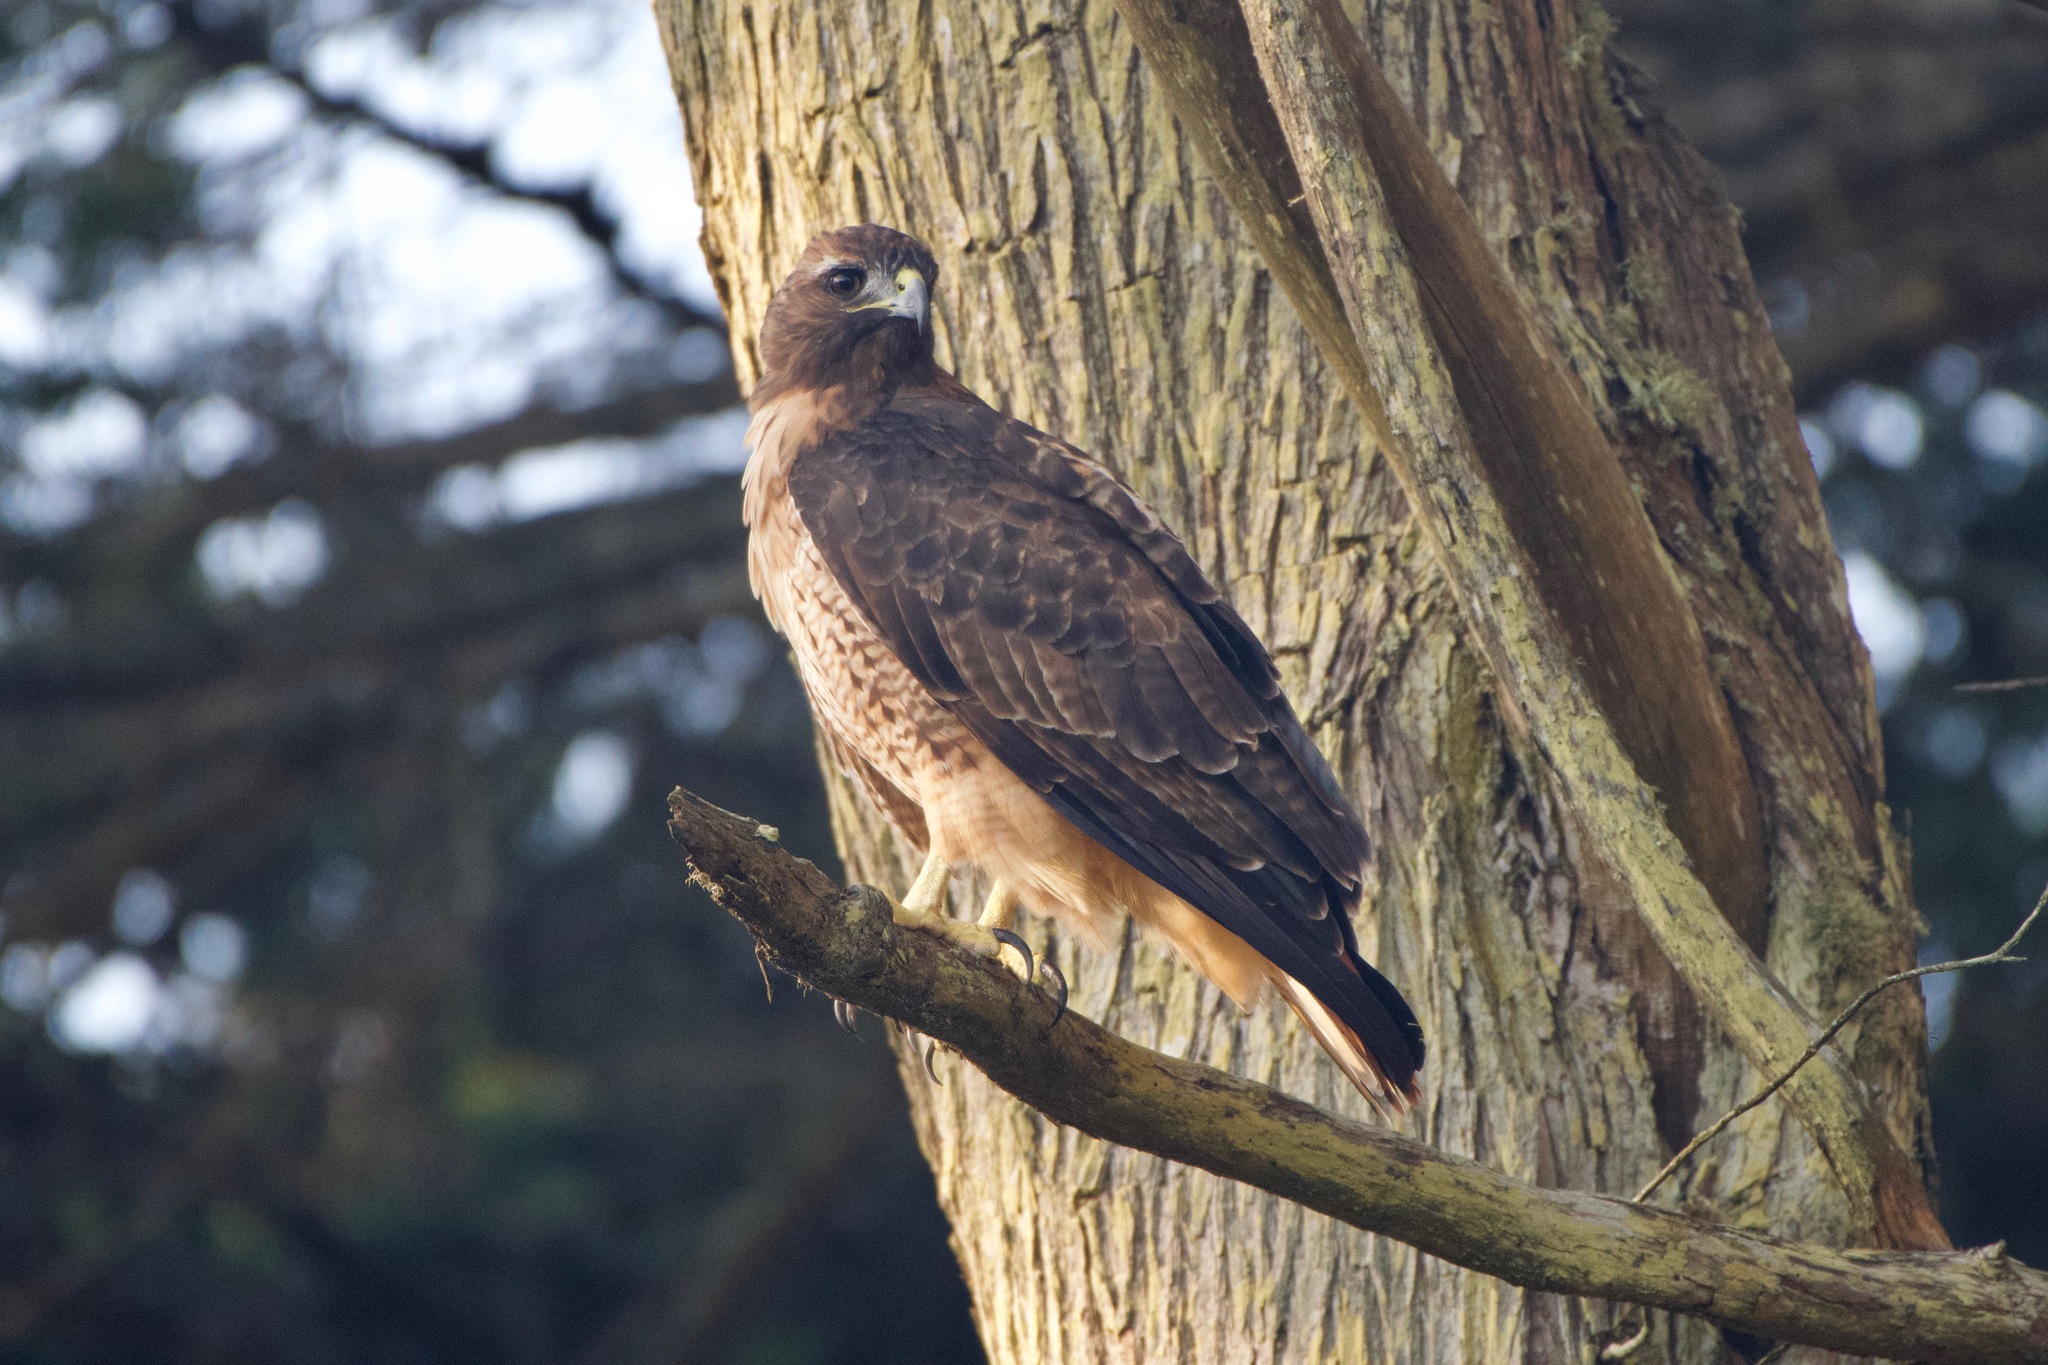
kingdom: Animalia
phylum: Chordata
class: Aves
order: Accipitriformes
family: Accipitridae
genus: Buteo
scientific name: Buteo jamaicensis
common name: Red-tailed hawk
